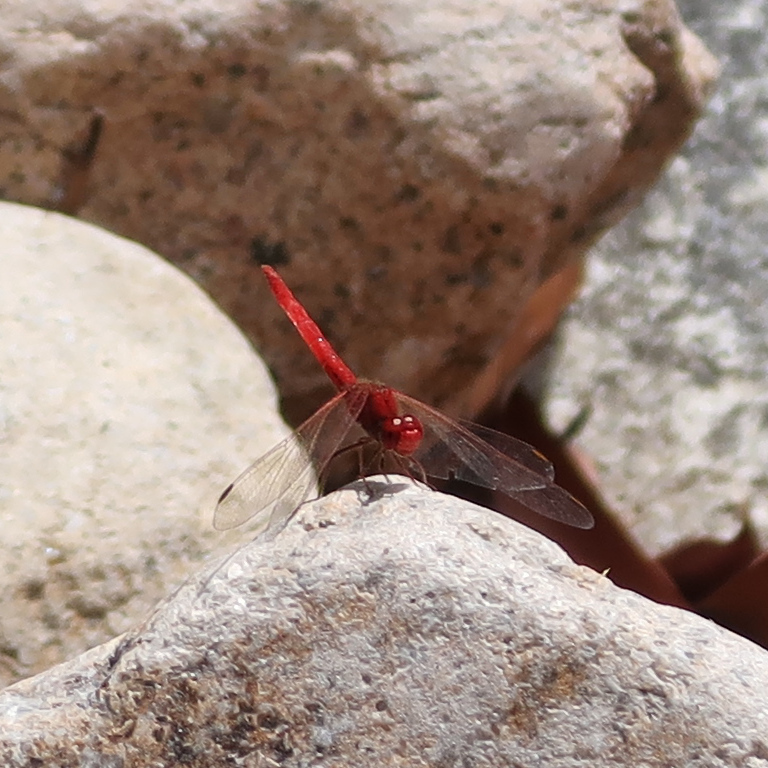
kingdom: Animalia
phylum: Arthropoda
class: Insecta
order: Odonata
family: Libellulidae
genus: Diplacodes
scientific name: Diplacodes haematodes
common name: Scarlet percher
